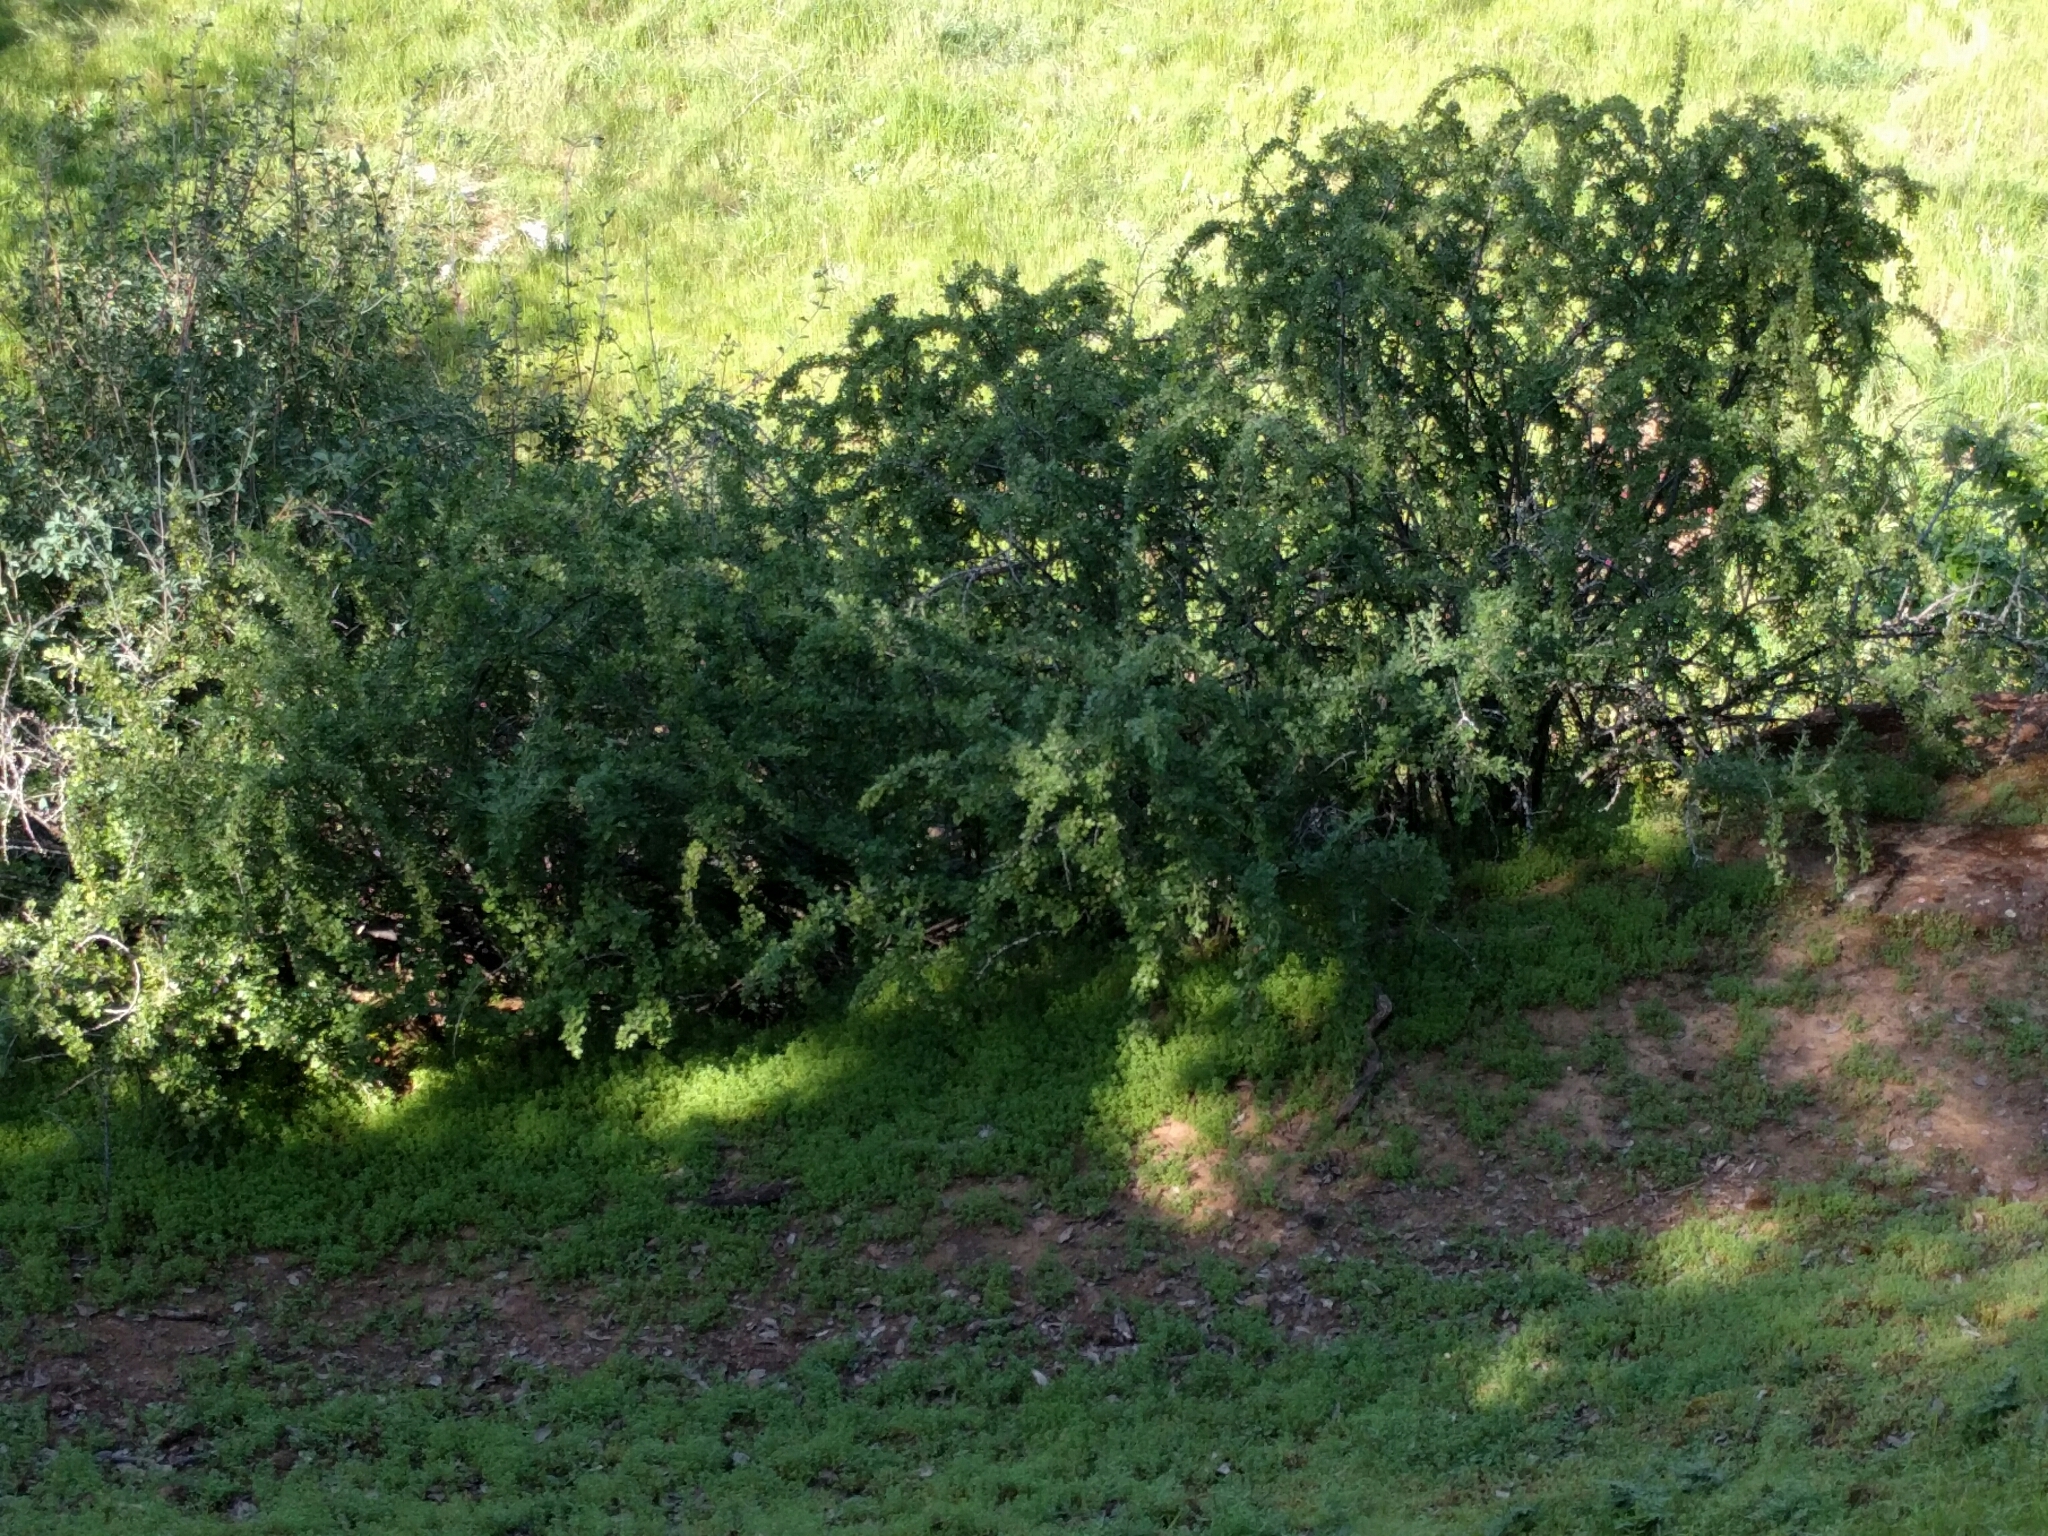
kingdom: Plantae
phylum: Tracheophyta
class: Magnoliopsida
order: Saxifragales
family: Grossulariaceae
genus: Ribes
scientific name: Ribes quercetorum
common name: Oak gooseberry
